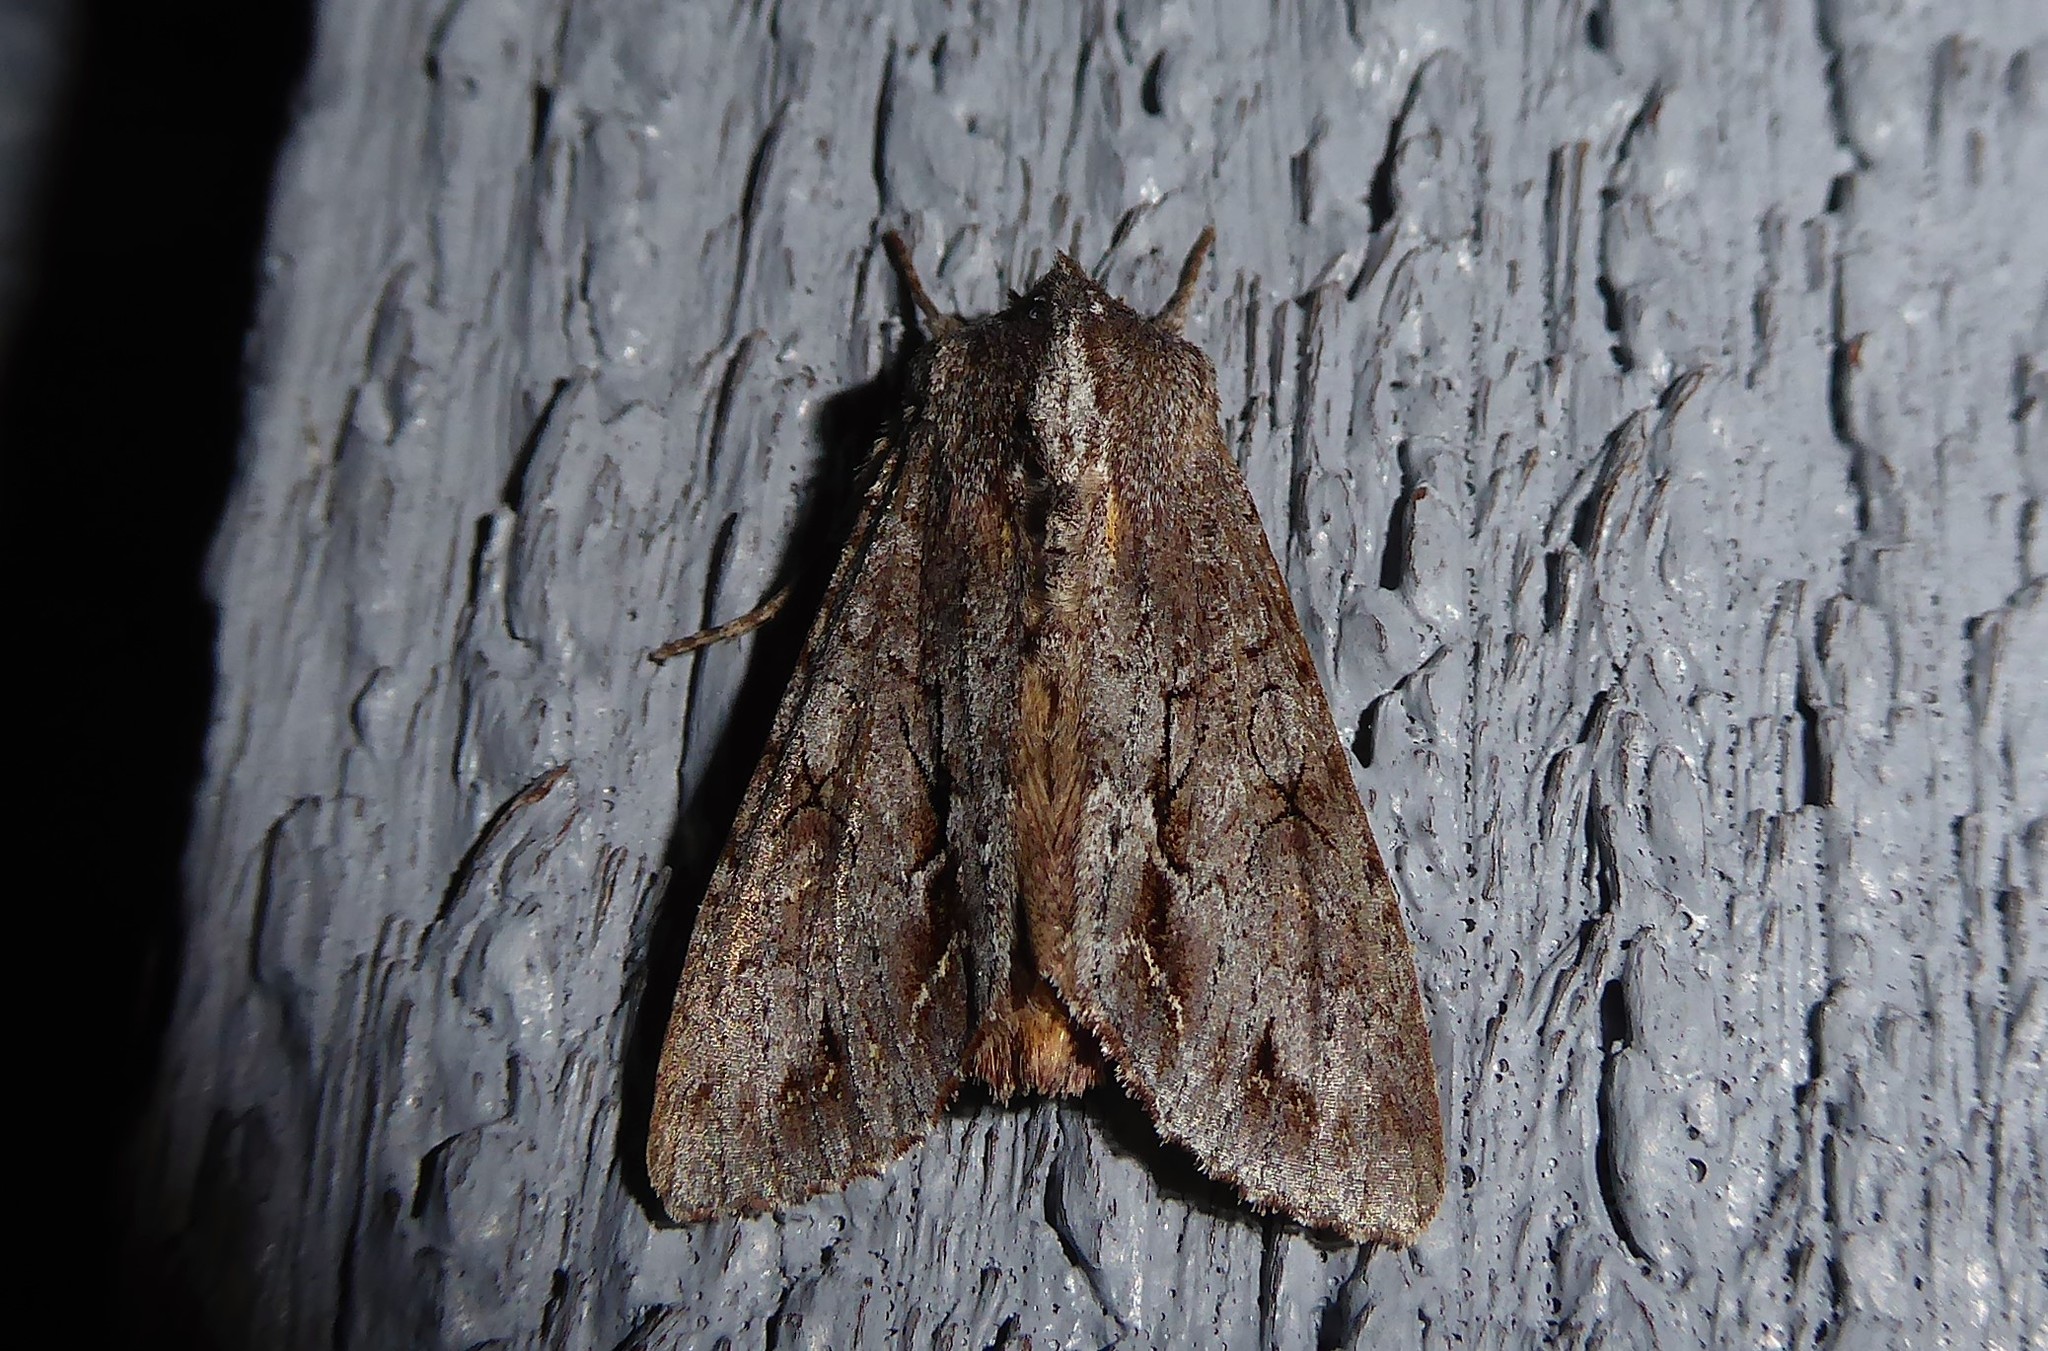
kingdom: Animalia
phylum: Arthropoda
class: Insecta
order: Lepidoptera
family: Noctuidae
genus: Ichneutica
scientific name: Ichneutica
